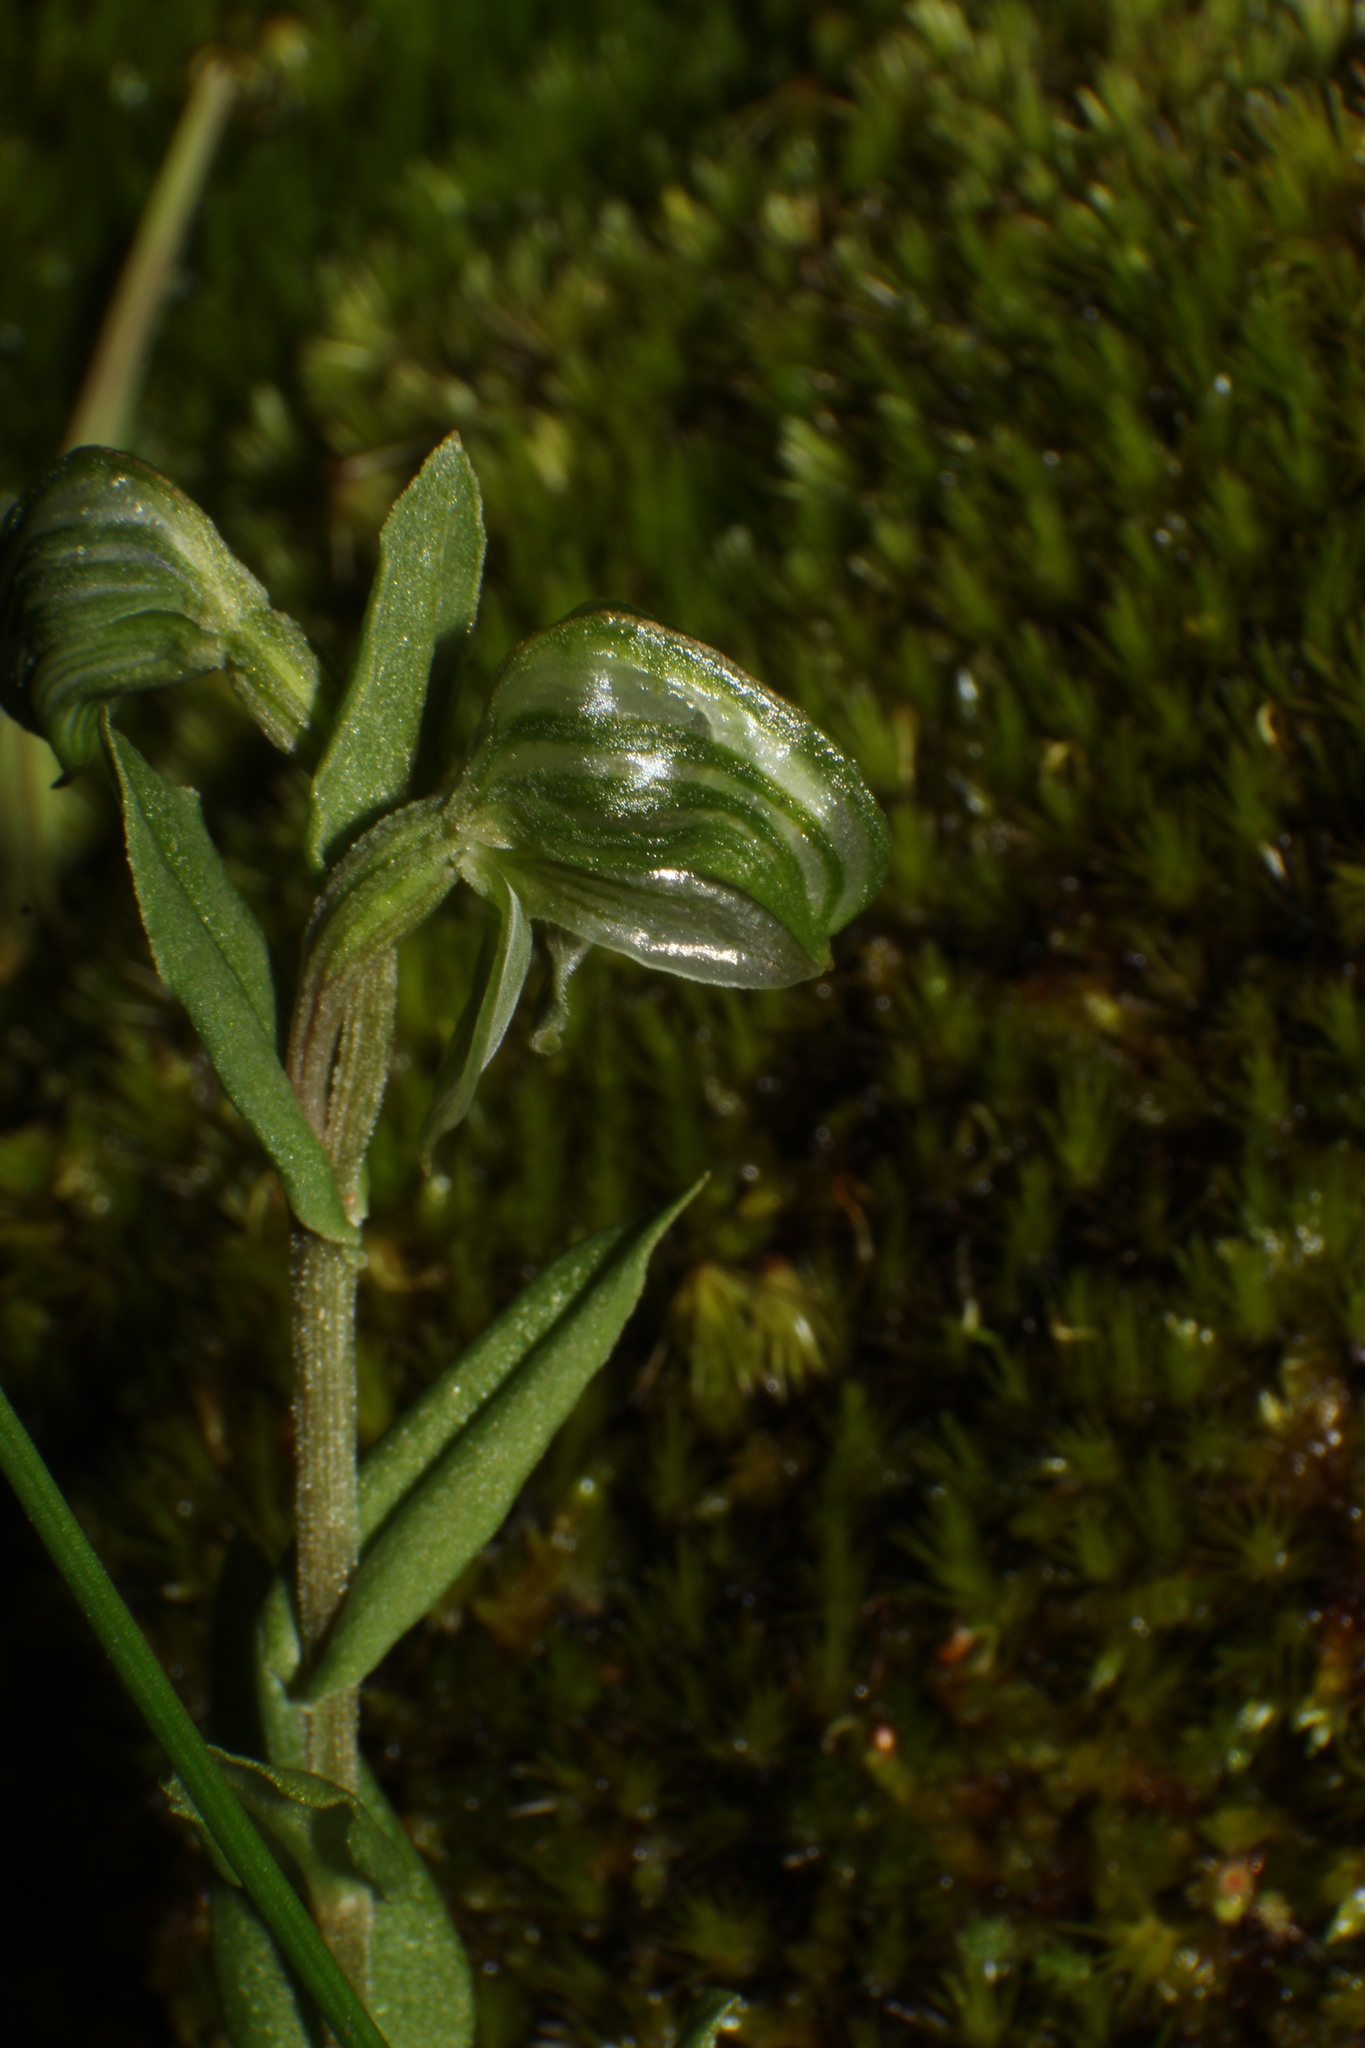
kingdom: Plantae
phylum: Tracheophyta
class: Liliopsida
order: Asparagales
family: Orchidaceae
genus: Pterostylis
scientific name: Pterostylis vittata
